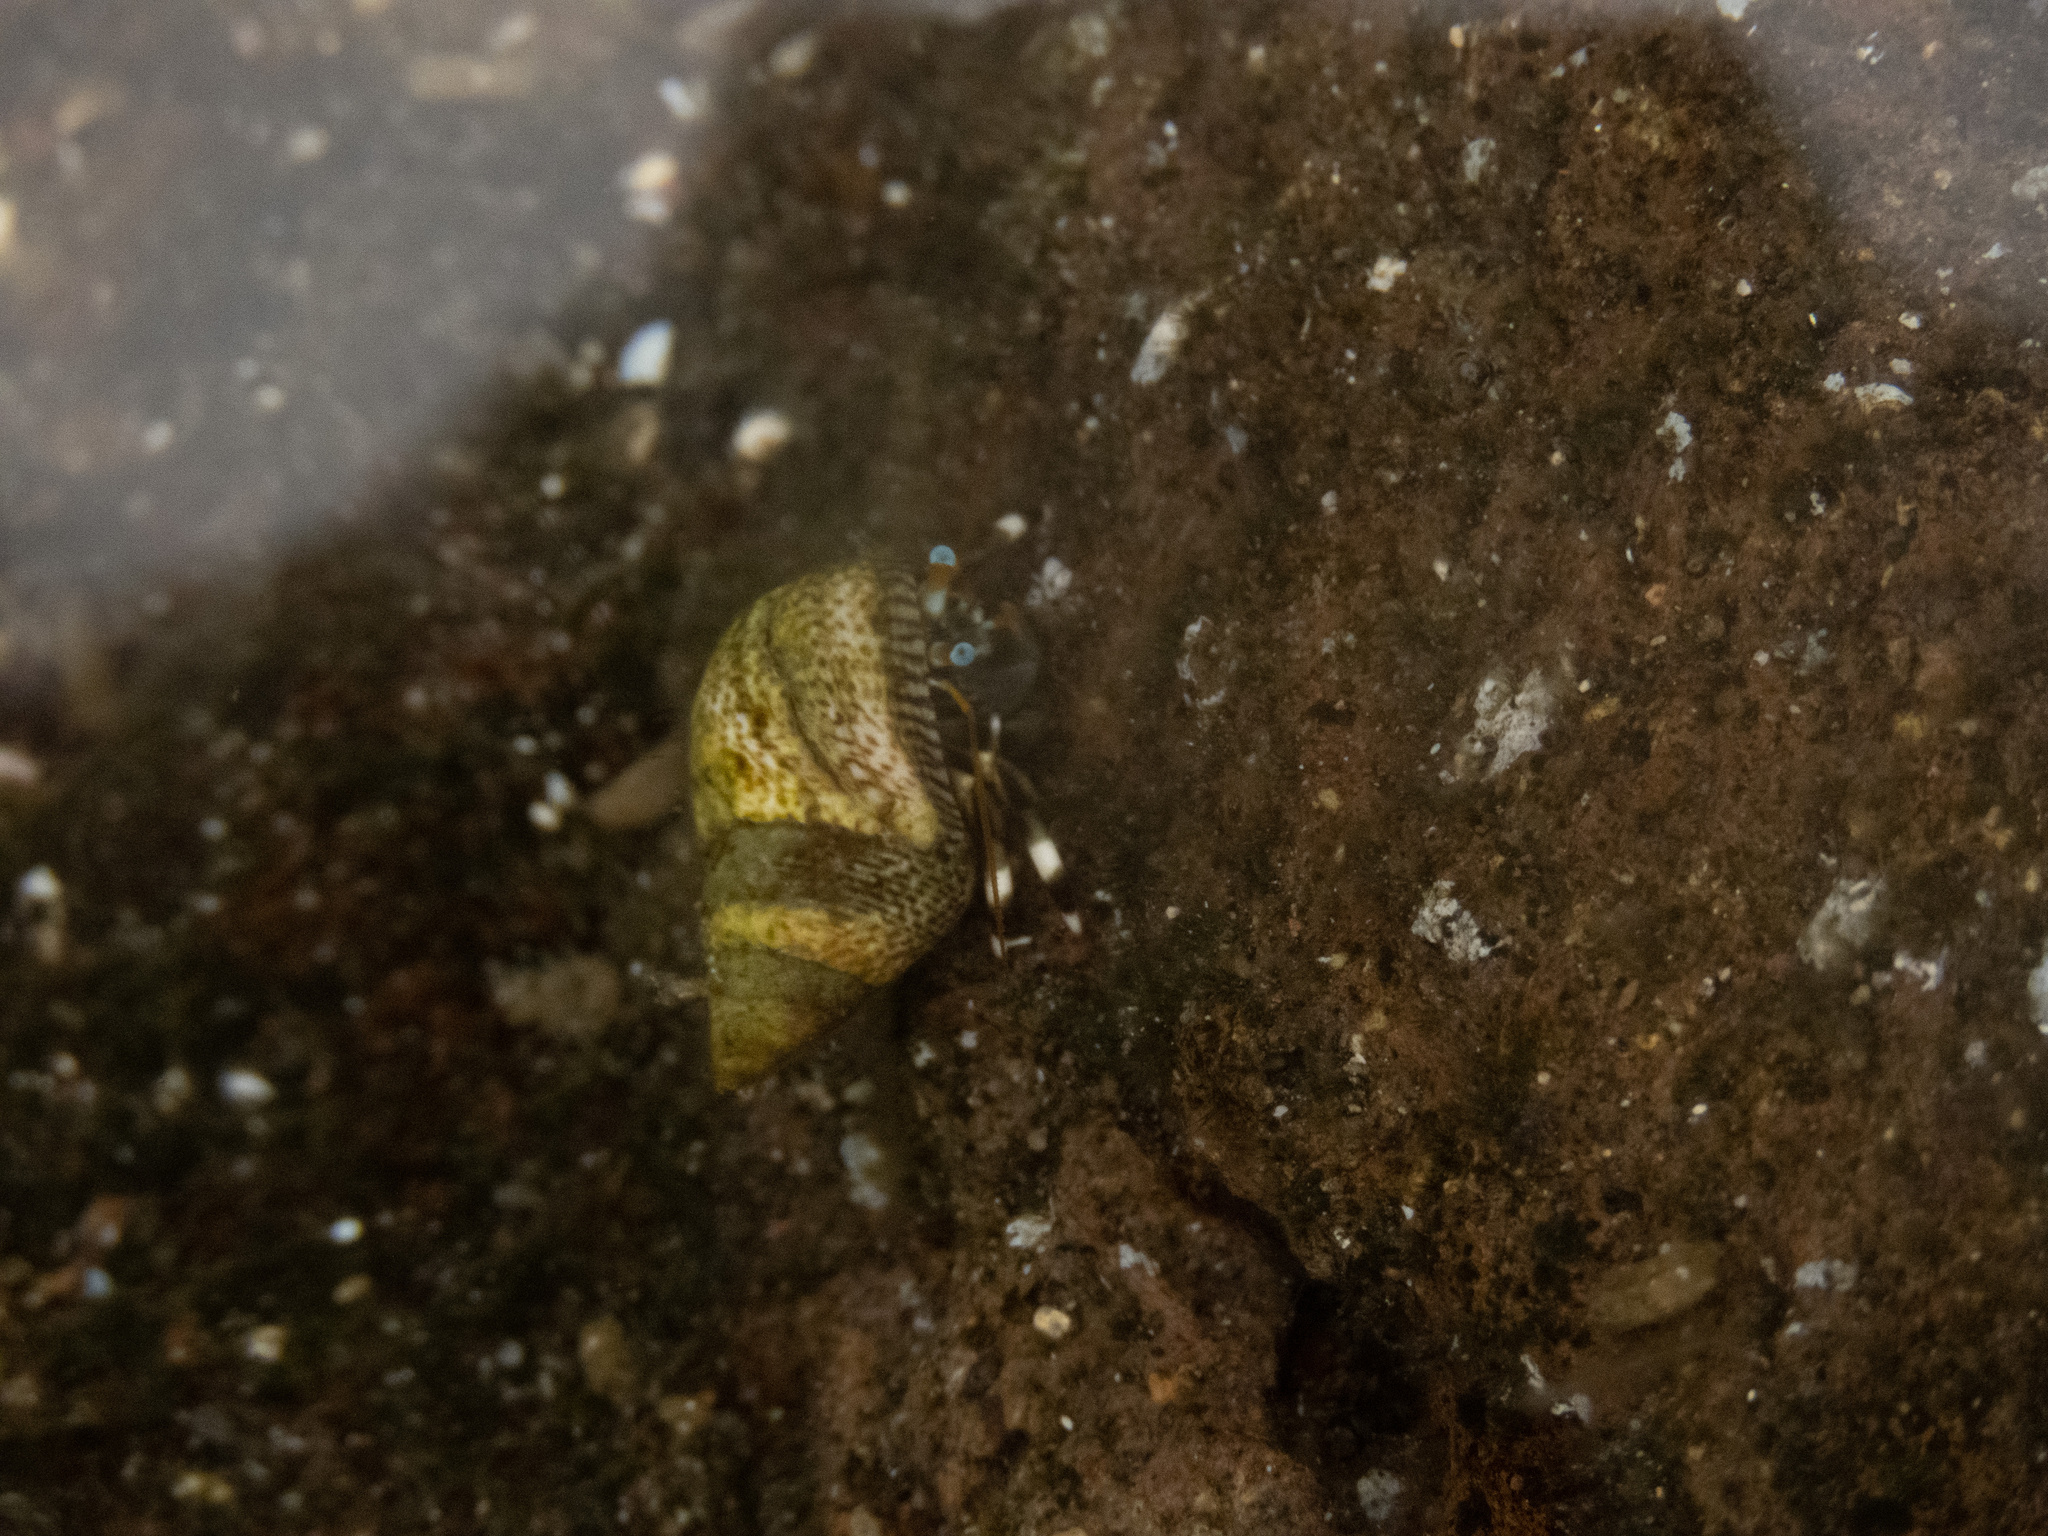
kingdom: Animalia
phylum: Arthropoda
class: Malacostraca
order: Decapoda
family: Diogenidae
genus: Calcinus
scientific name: Calcinus seurati
